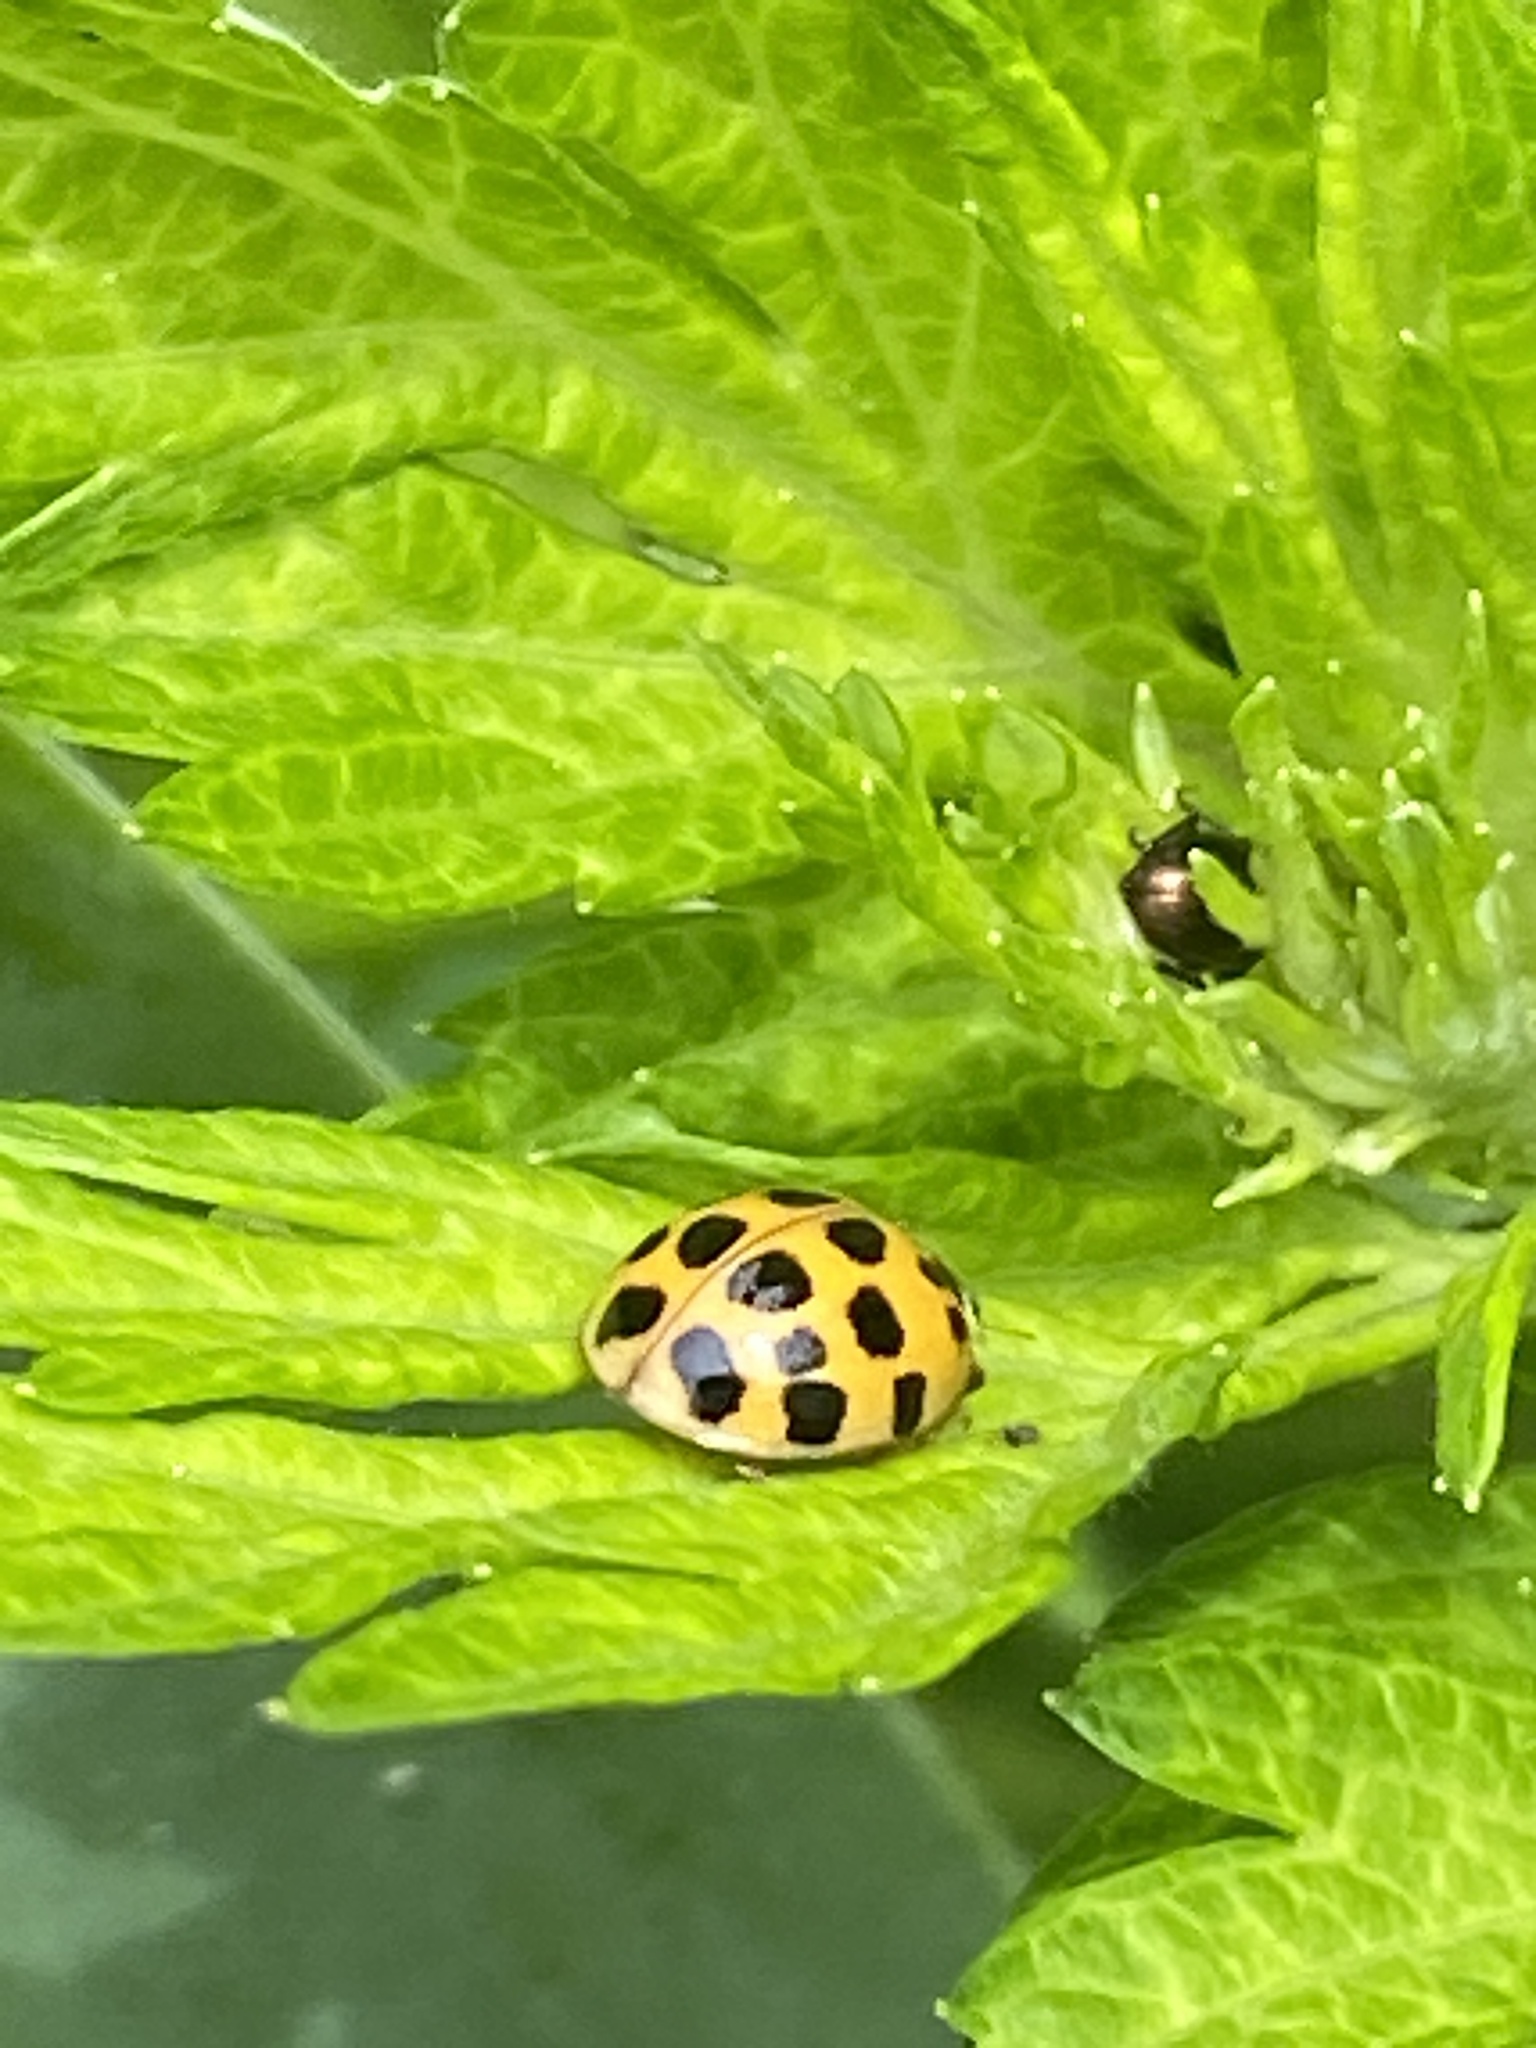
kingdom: Animalia
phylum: Arthropoda
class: Insecta
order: Coleoptera
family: Coccinellidae
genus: Harmonia
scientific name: Harmonia axyridis
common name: Harlequin ladybird
